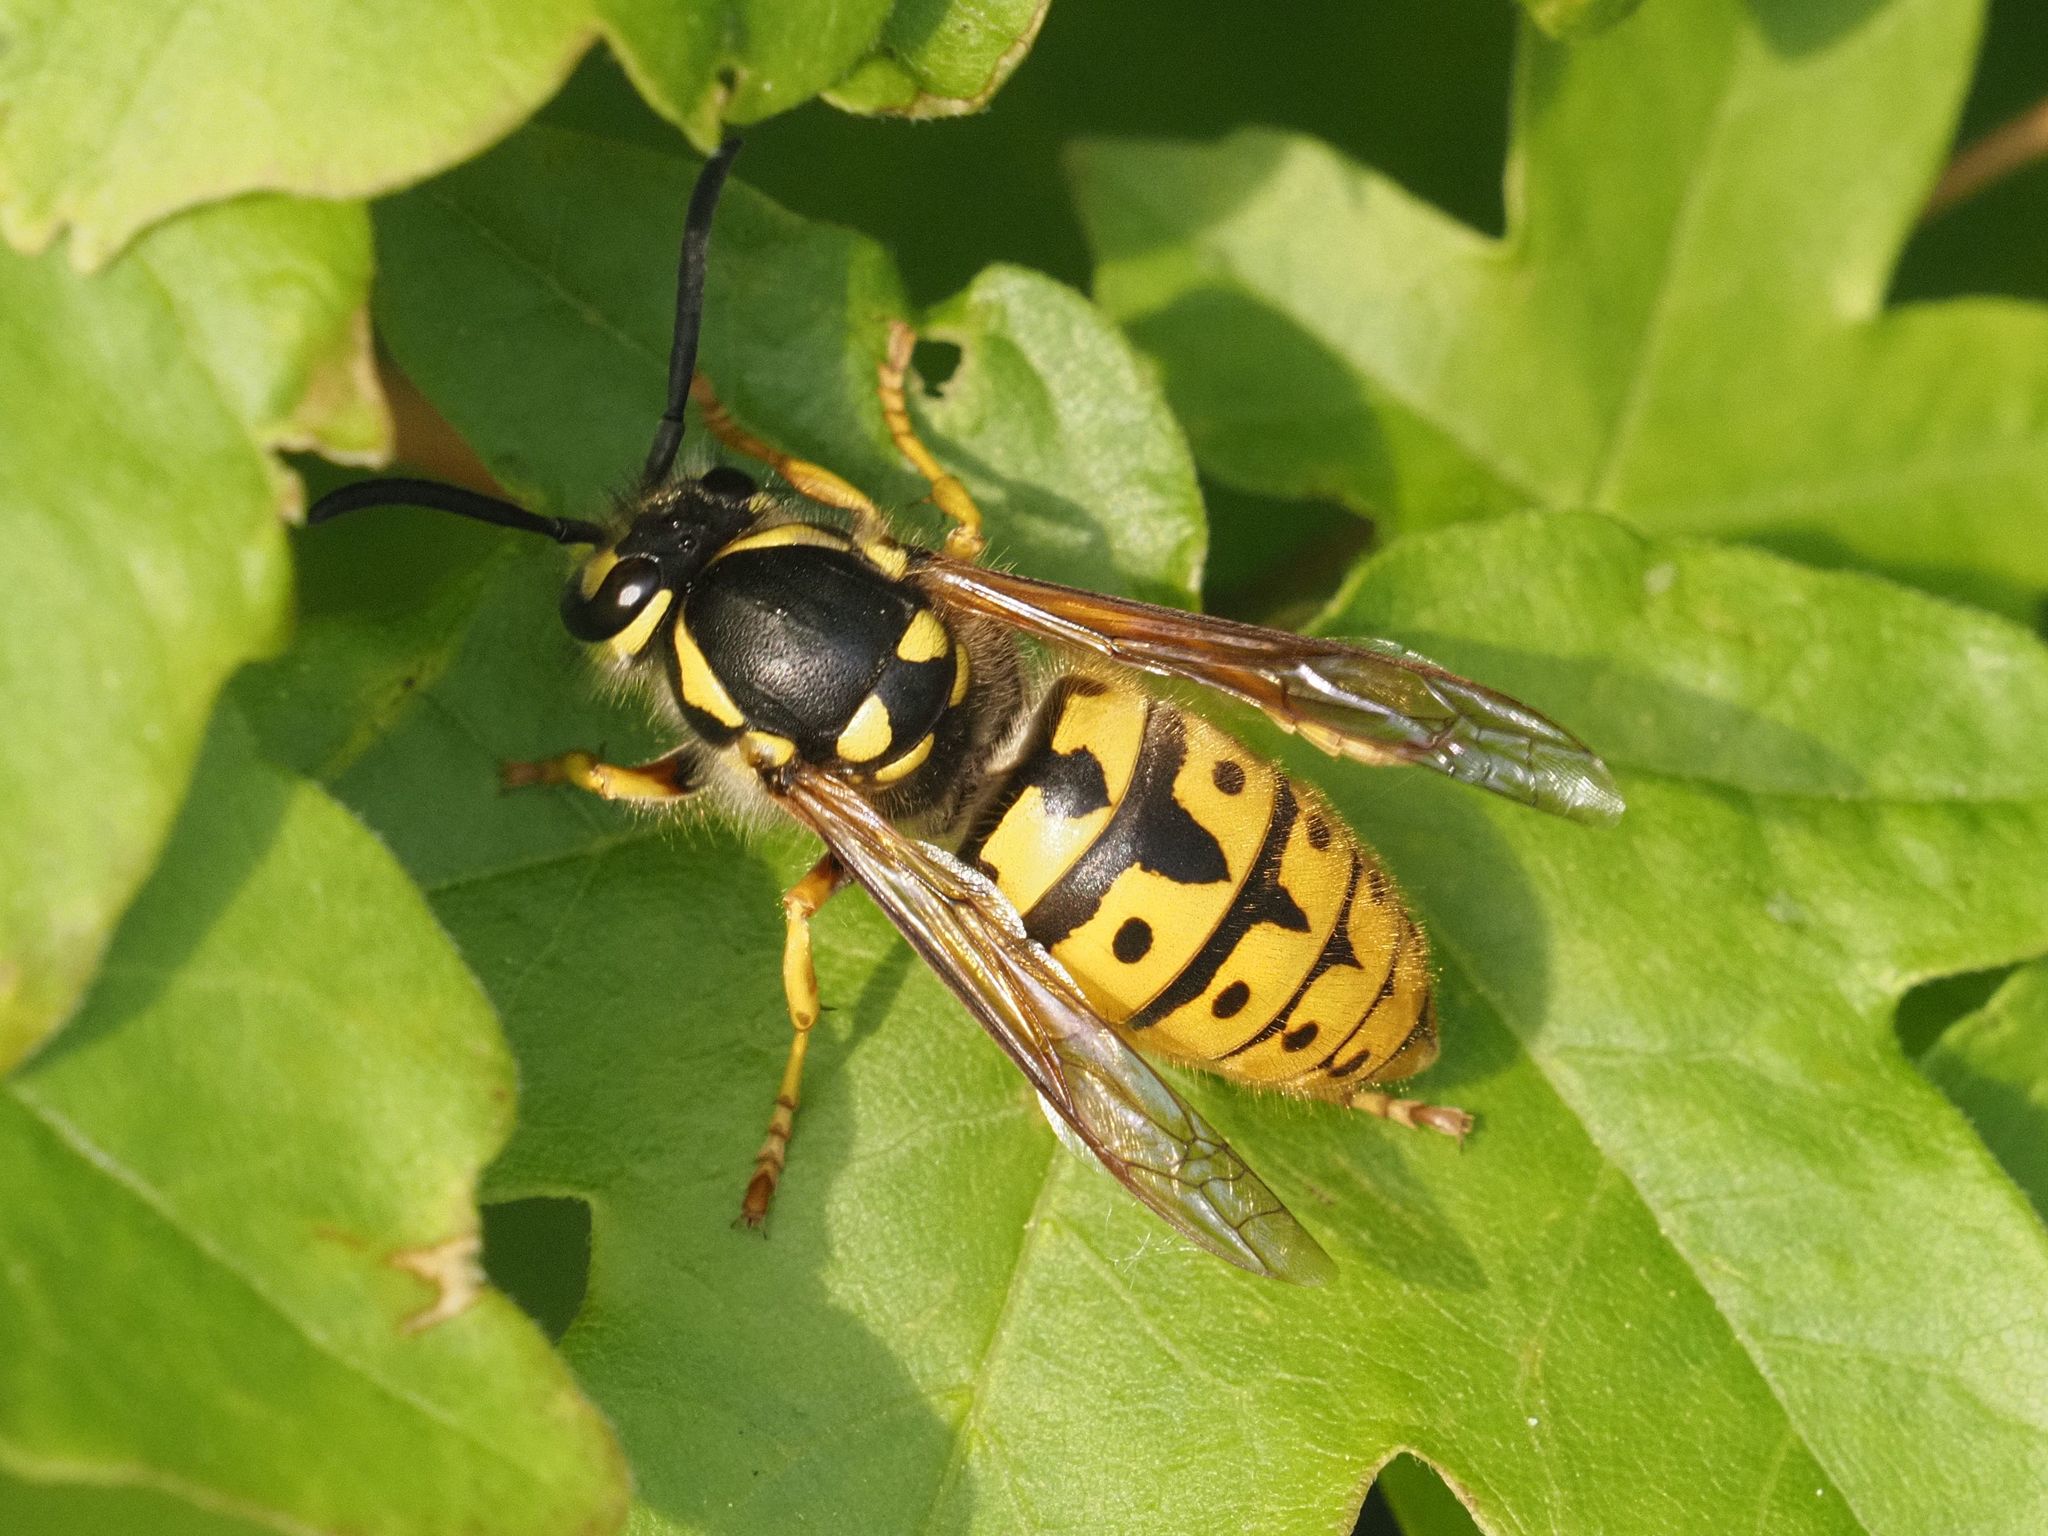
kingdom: Animalia
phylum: Arthropoda
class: Insecta
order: Hymenoptera
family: Vespidae
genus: Vespula
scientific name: Vespula germanica
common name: German wasp
